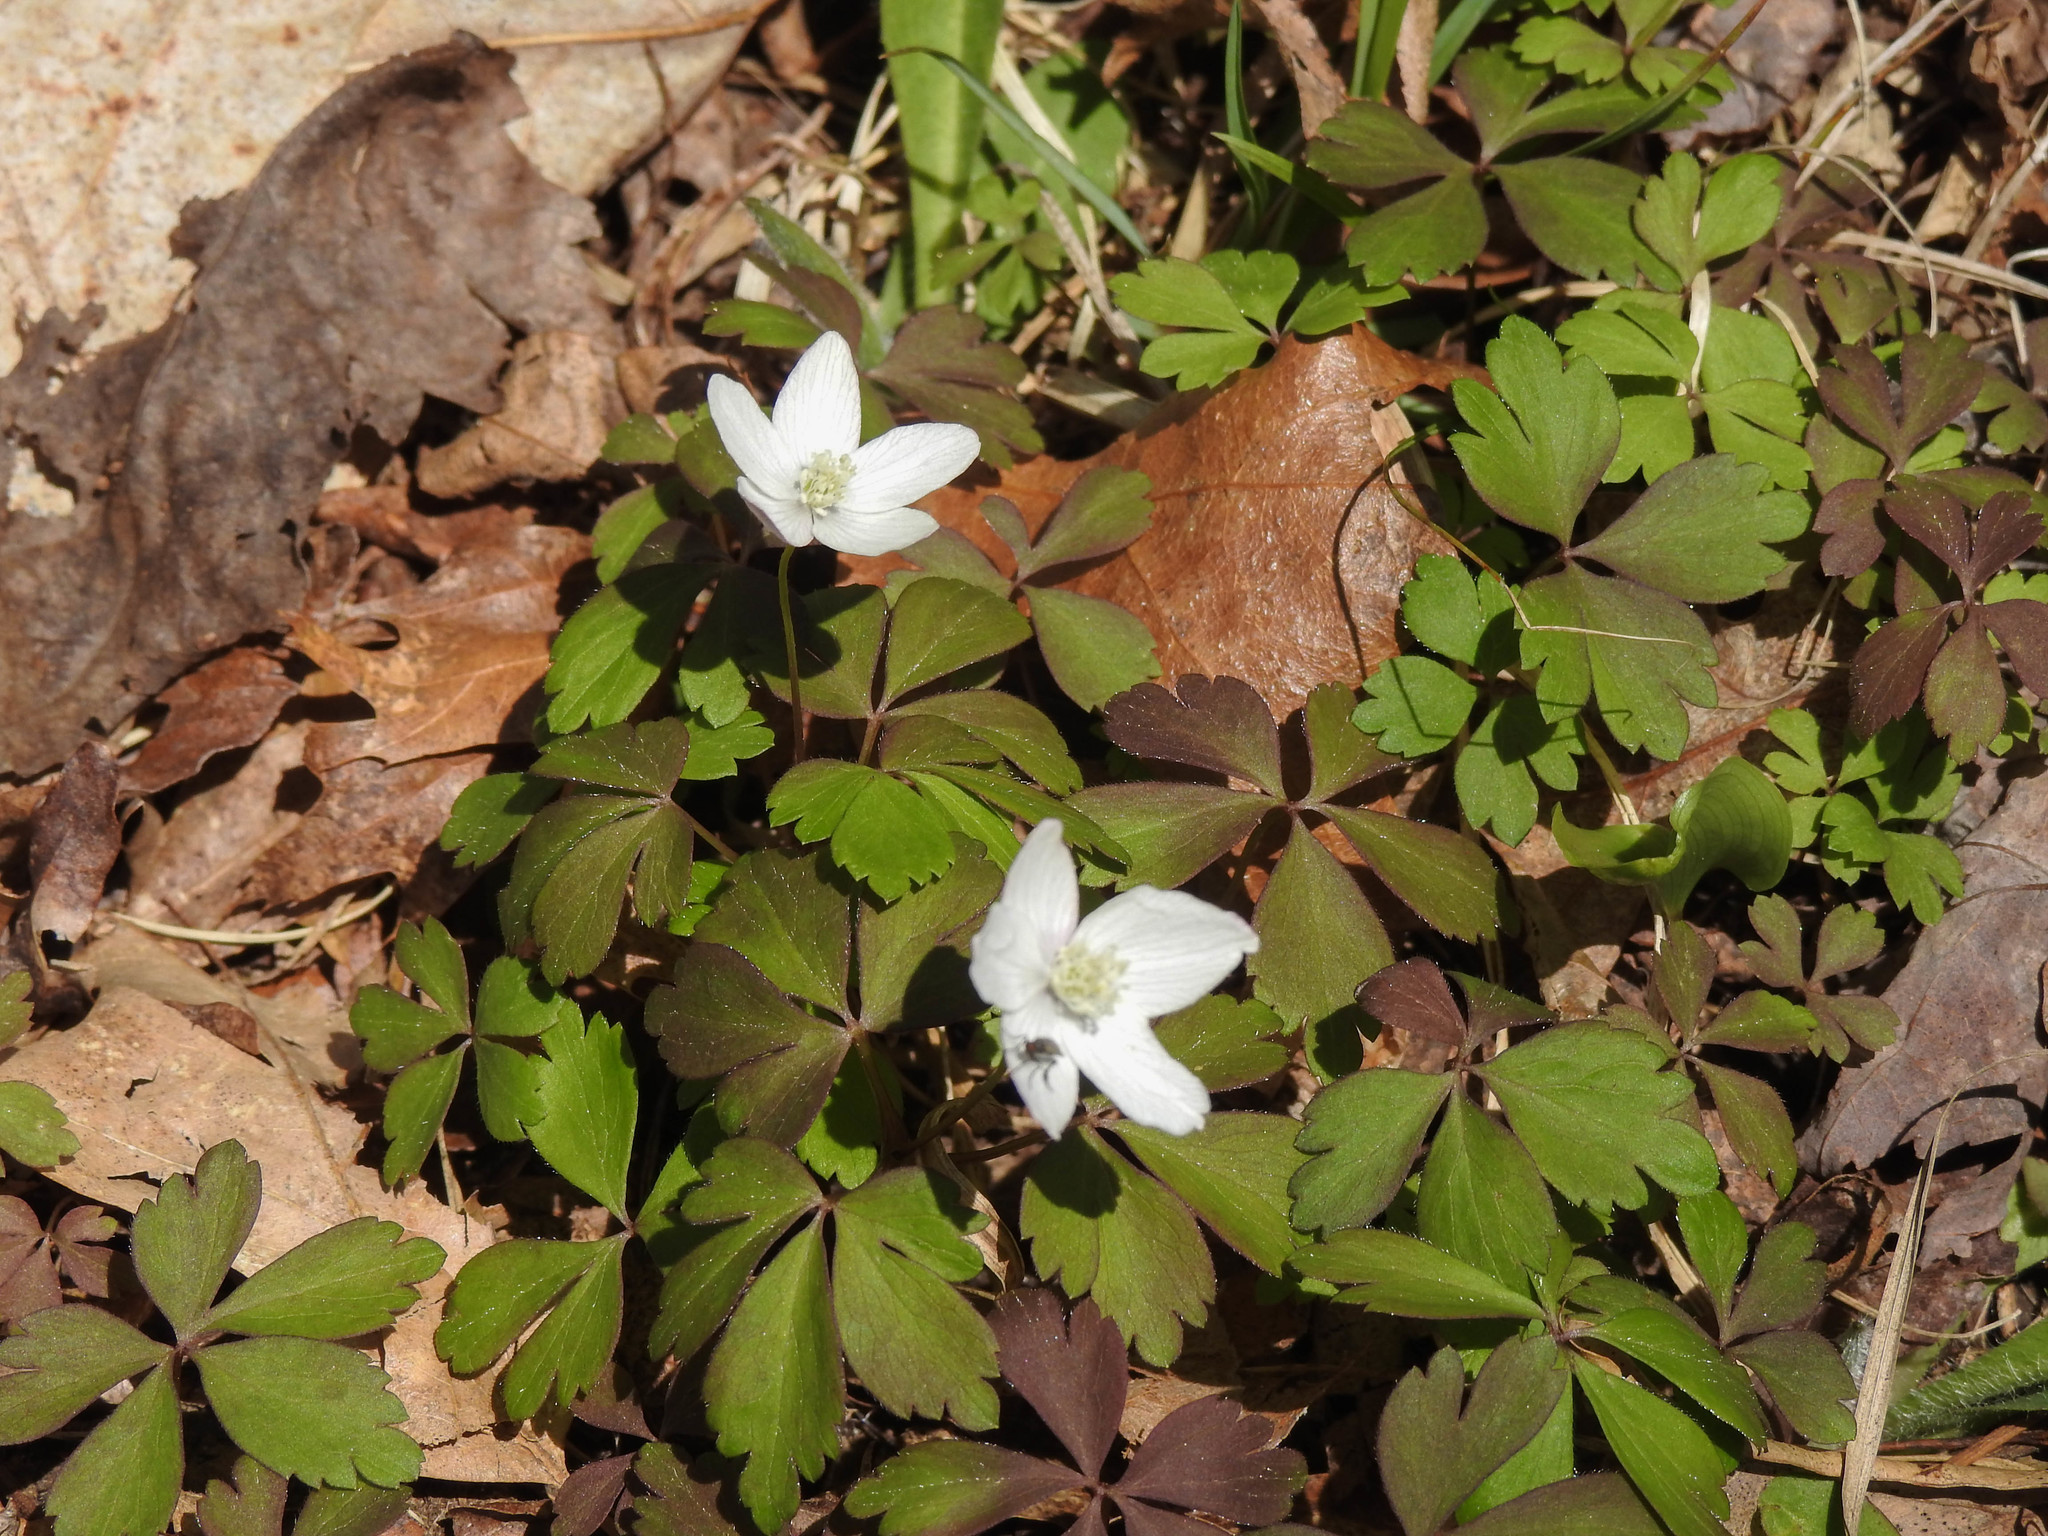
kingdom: Plantae
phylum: Tracheophyta
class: Magnoliopsida
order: Ranunculales
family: Ranunculaceae
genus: Anemone
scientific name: Anemone quinquefolia
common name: Wood anemone
